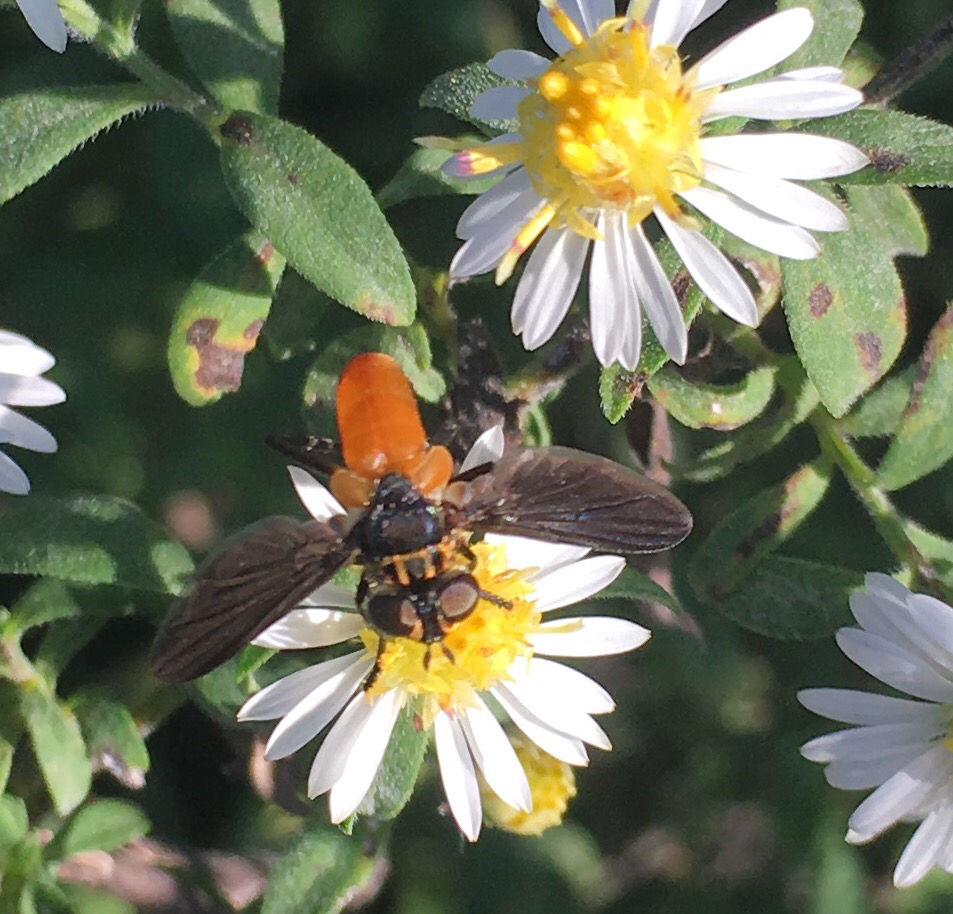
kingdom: Animalia
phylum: Arthropoda
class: Insecta
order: Diptera
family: Tachinidae
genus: Trichopoda
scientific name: Trichopoda pennipes
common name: Tachinid fly
